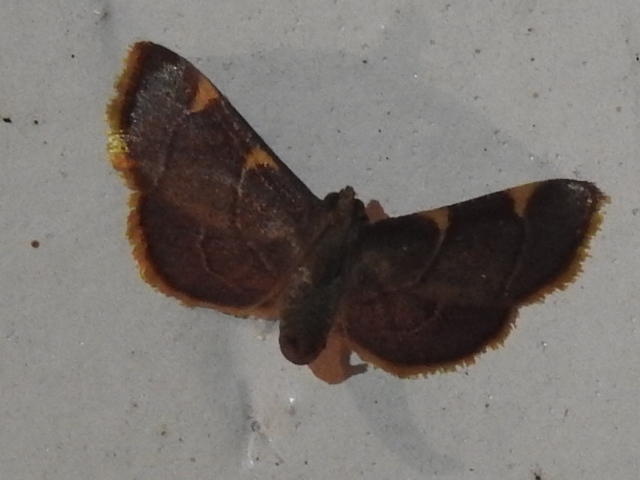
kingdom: Animalia
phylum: Arthropoda
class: Insecta
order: Lepidoptera
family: Pyralidae
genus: Hypsopygia
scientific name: Hypsopygia olinalis
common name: Yellow-fringed dolichomia moth
